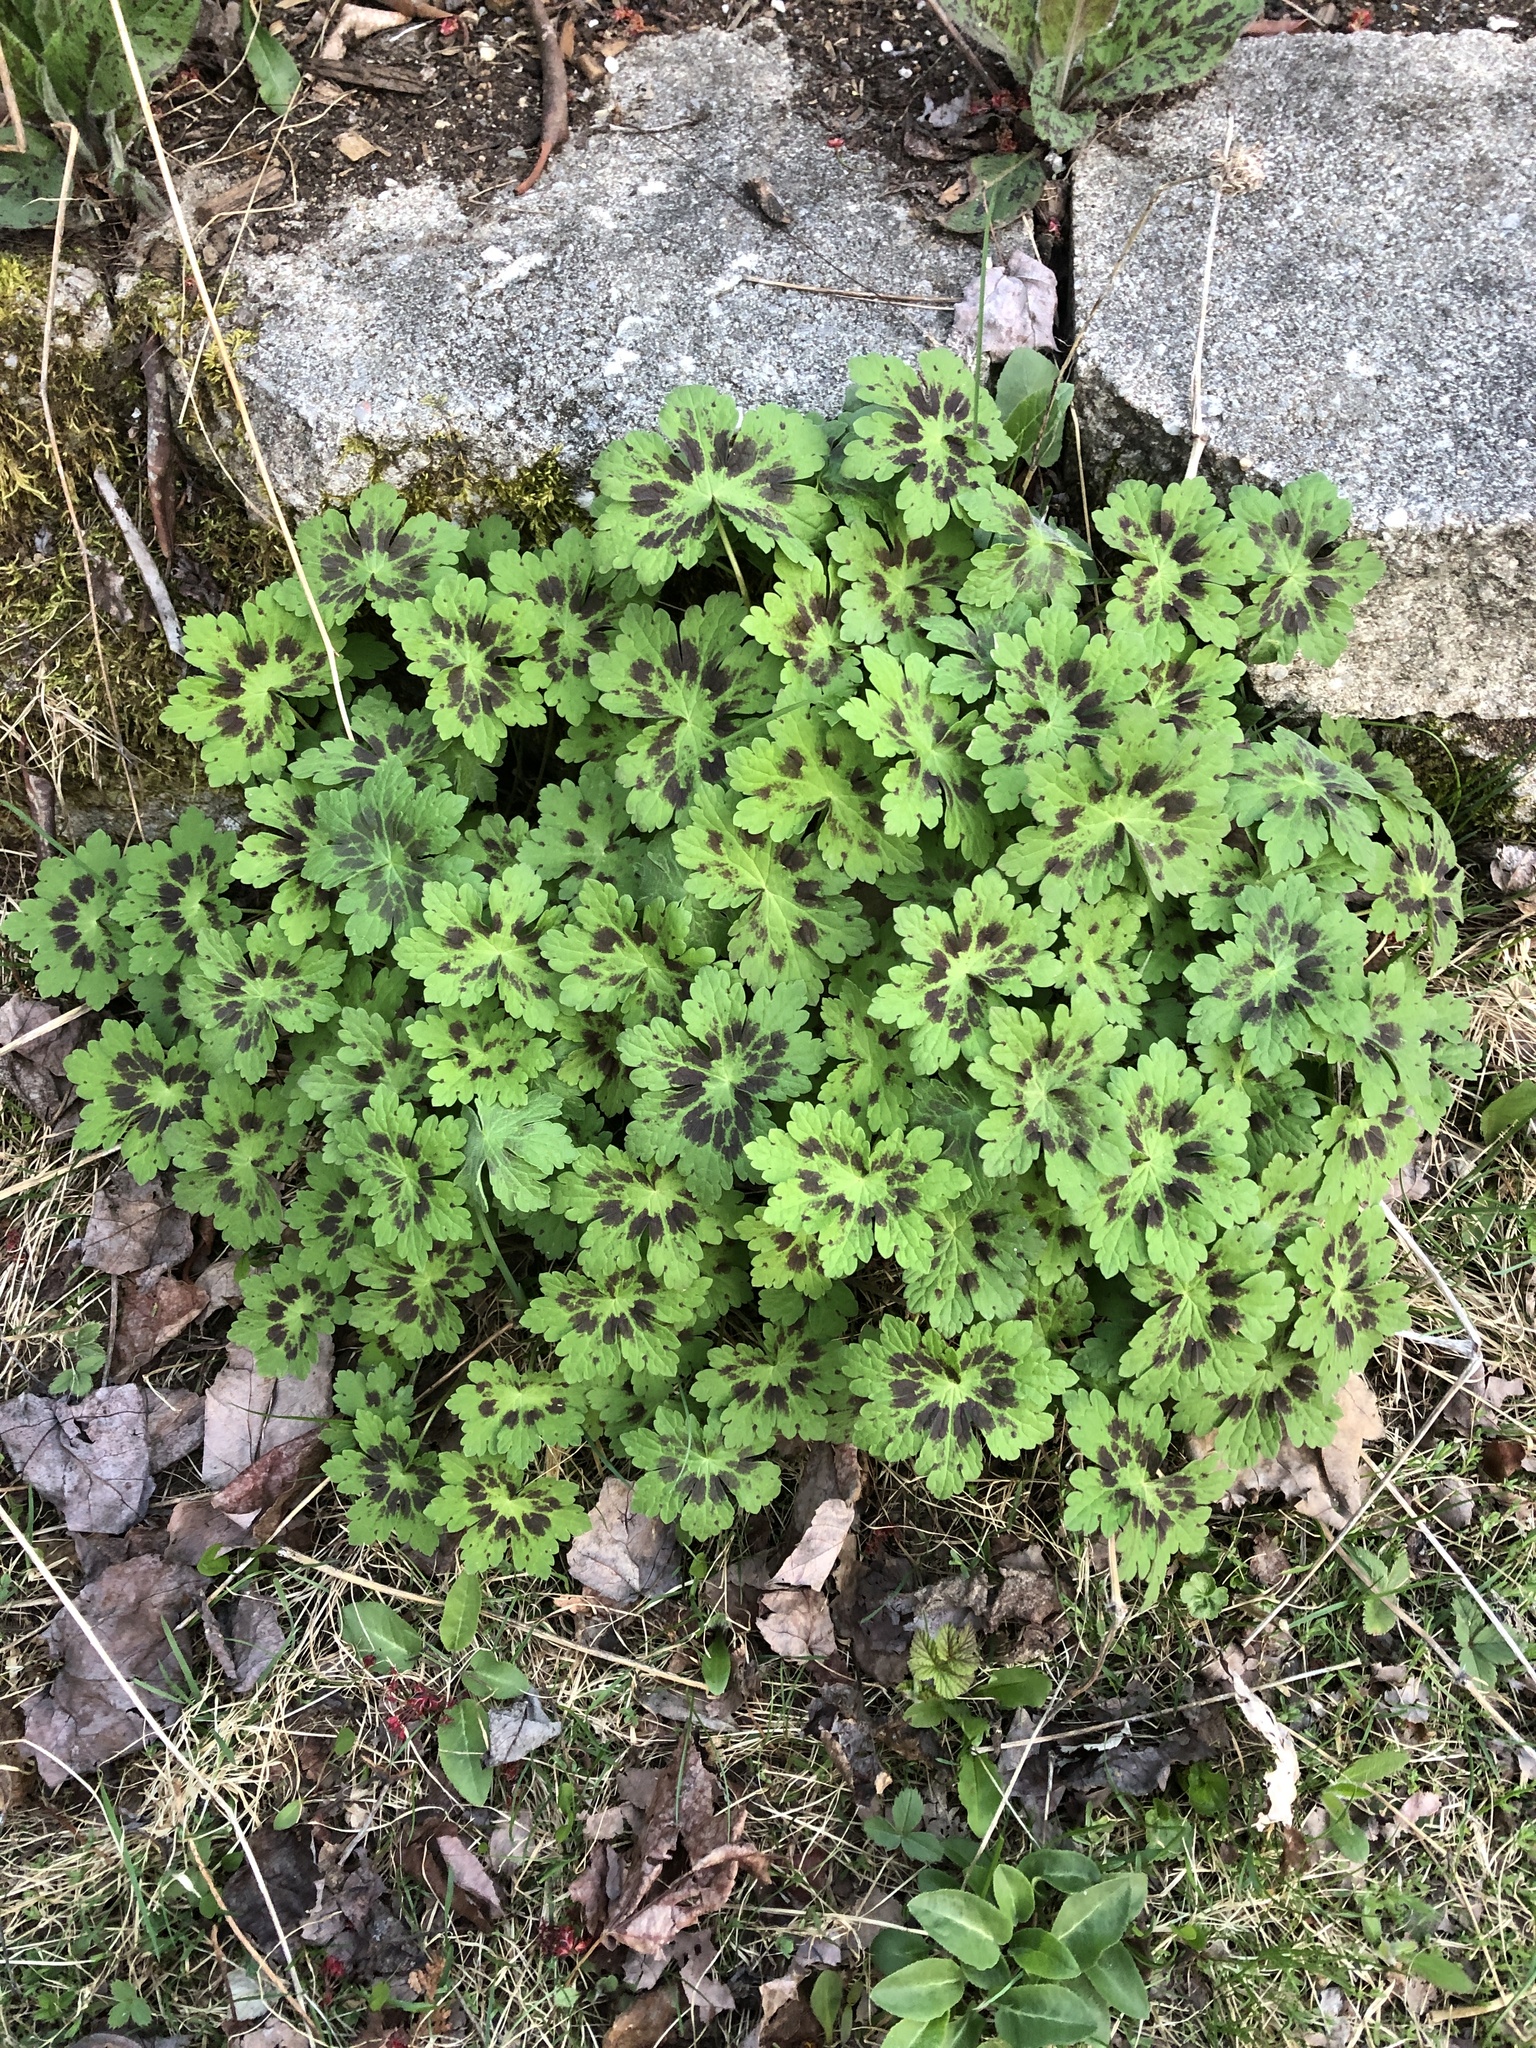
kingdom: Plantae
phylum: Tracheophyta
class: Magnoliopsida
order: Geraniales
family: Geraniaceae
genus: Geranium
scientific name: Geranium phaeum
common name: Dusky crane's-bill
